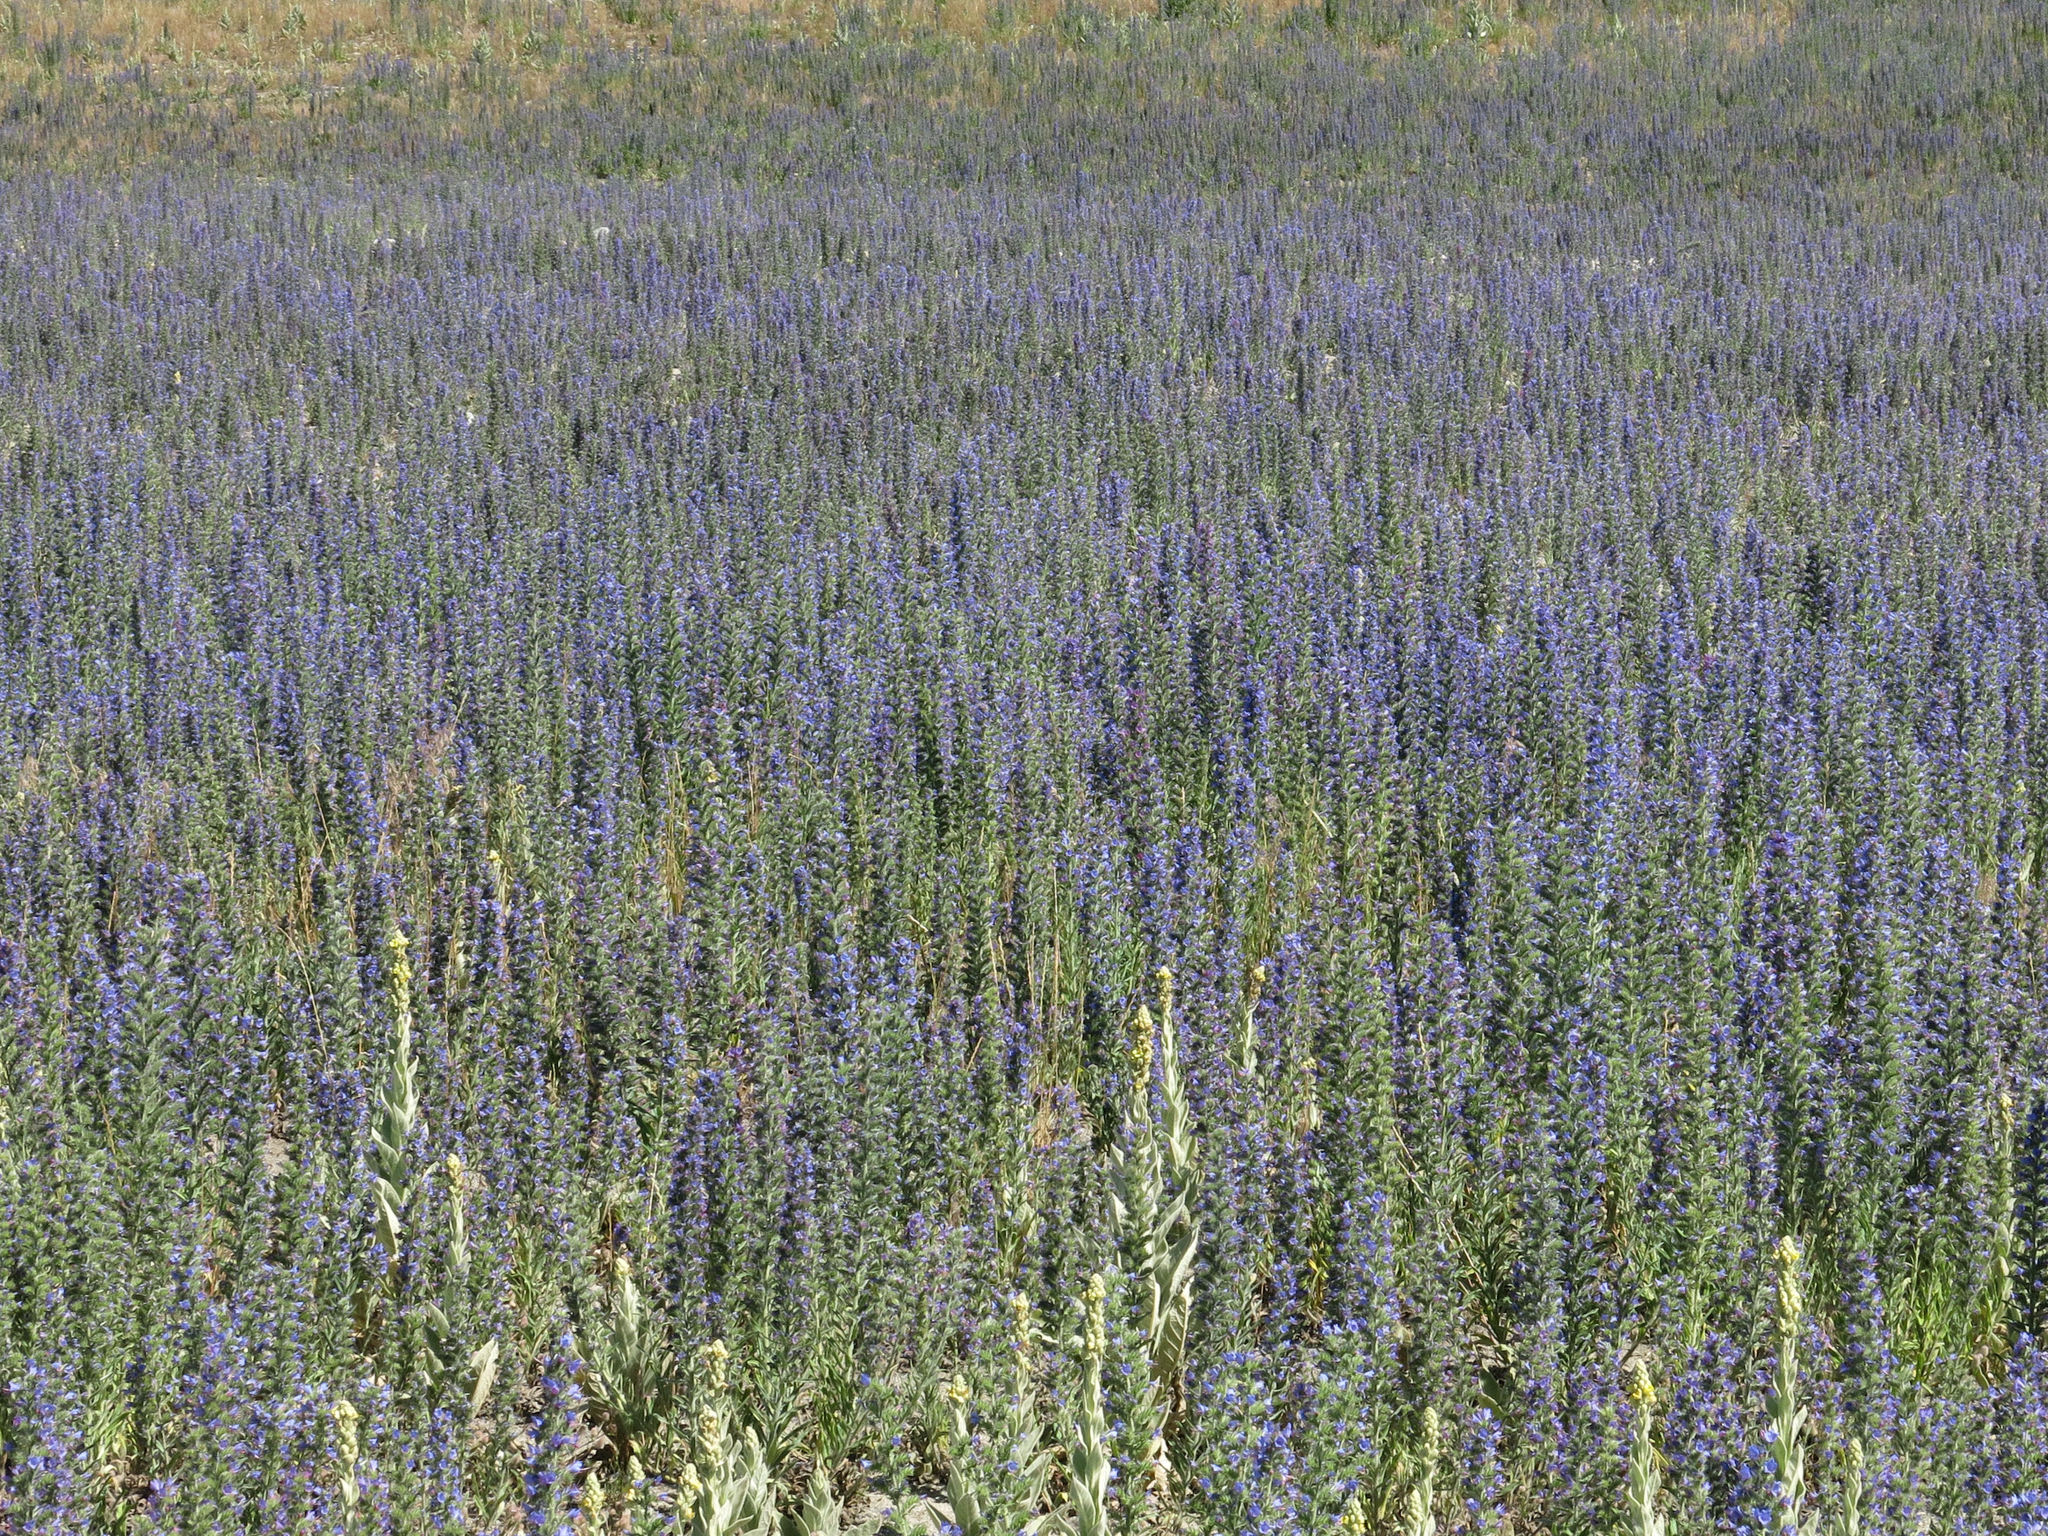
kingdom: Plantae
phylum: Tracheophyta
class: Magnoliopsida
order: Boraginales
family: Boraginaceae
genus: Echium
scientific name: Echium vulgare
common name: Common viper's bugloss
